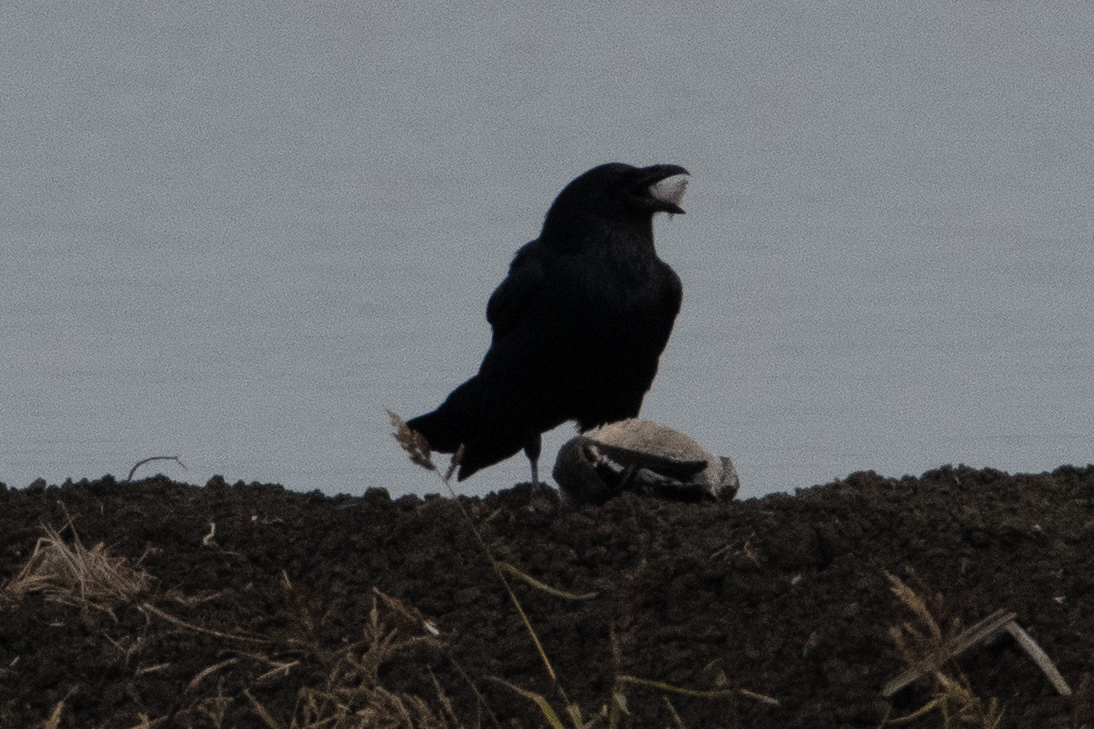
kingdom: Animalia
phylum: Chordata
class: Aves
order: Passeriformes
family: Corvidae
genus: Corvus
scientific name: Corvus corax
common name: Common raven
